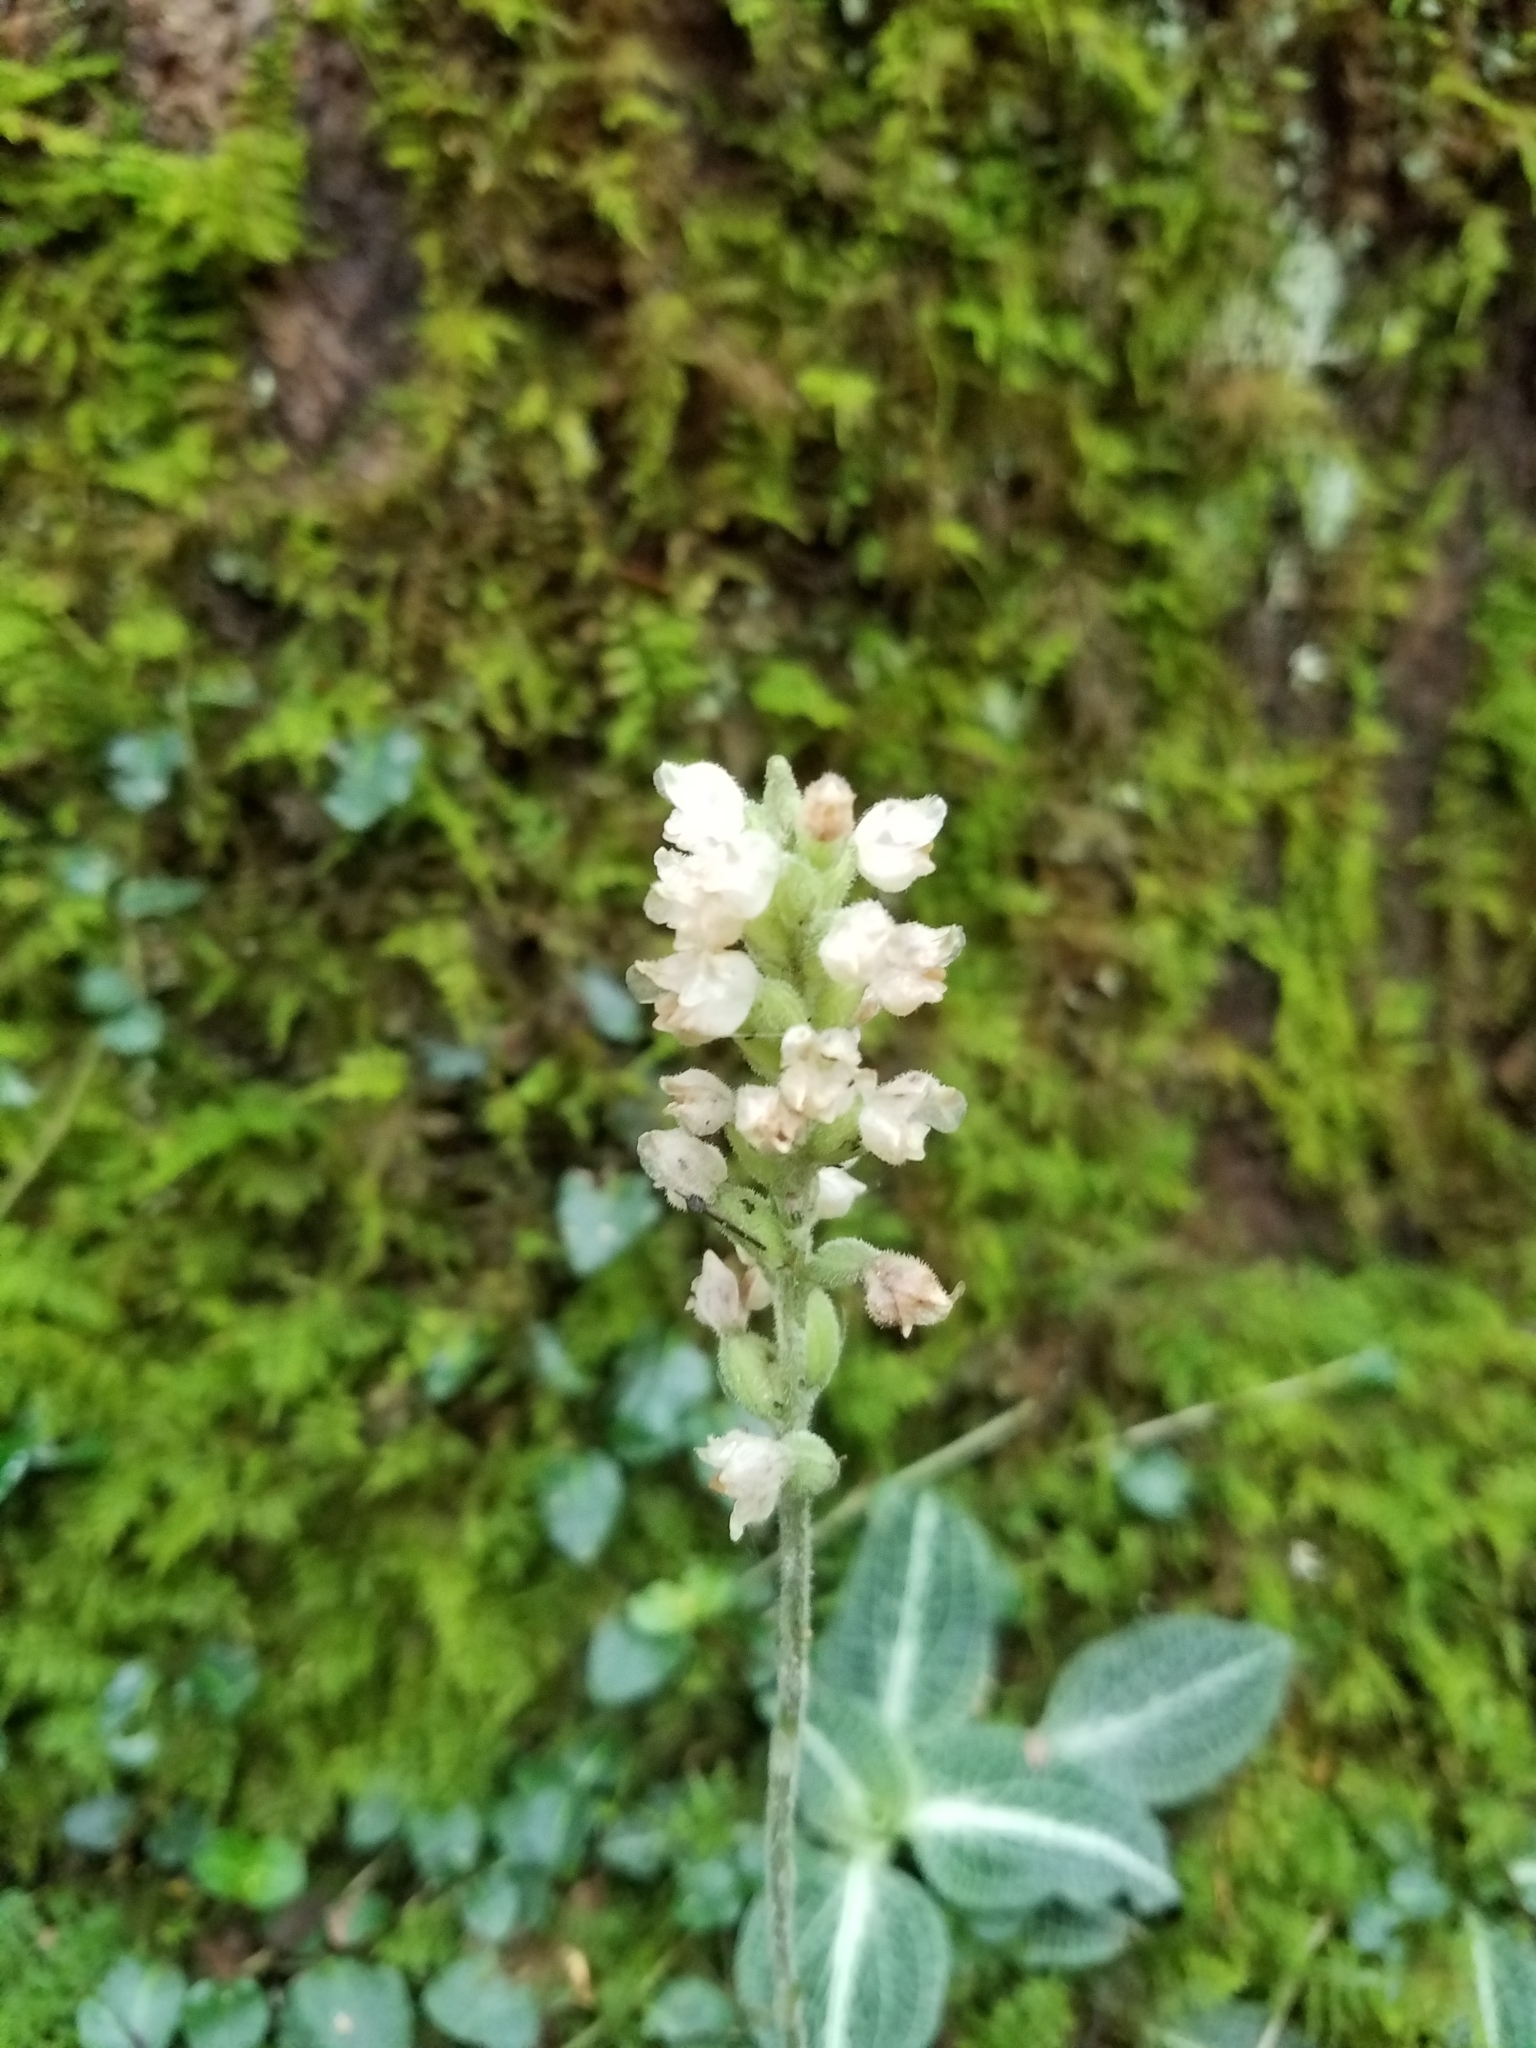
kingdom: Plantae
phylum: Tracheophyta
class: Liliopsida
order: Asparagales
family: Orchidaceae
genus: Goodyera
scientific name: Goodyera pubescens
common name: Downy rattlesnake-plantain
